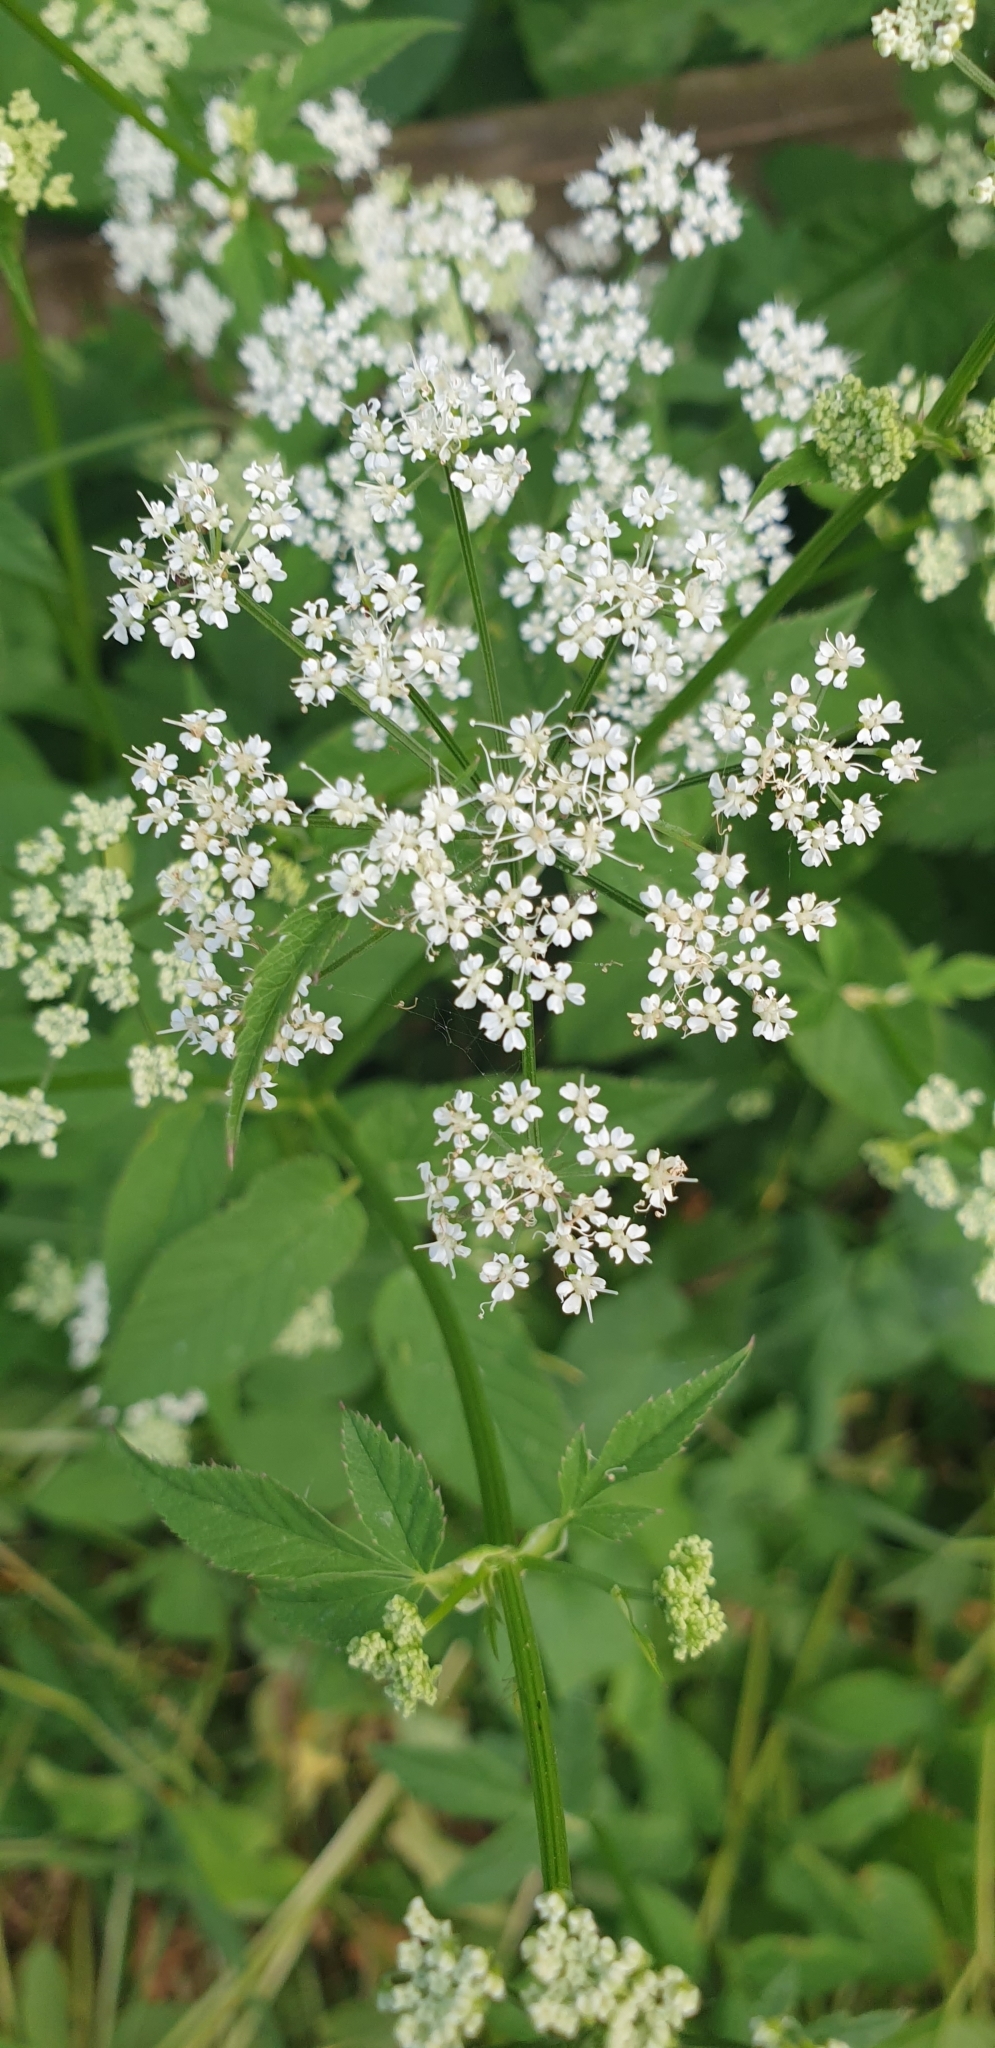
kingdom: Plantae
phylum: Tracheophyta
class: Magnoliopsida
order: Apiales
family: Apiaceae
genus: Aegopodium
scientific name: Aegopodium podagraria
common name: Ground-elder
